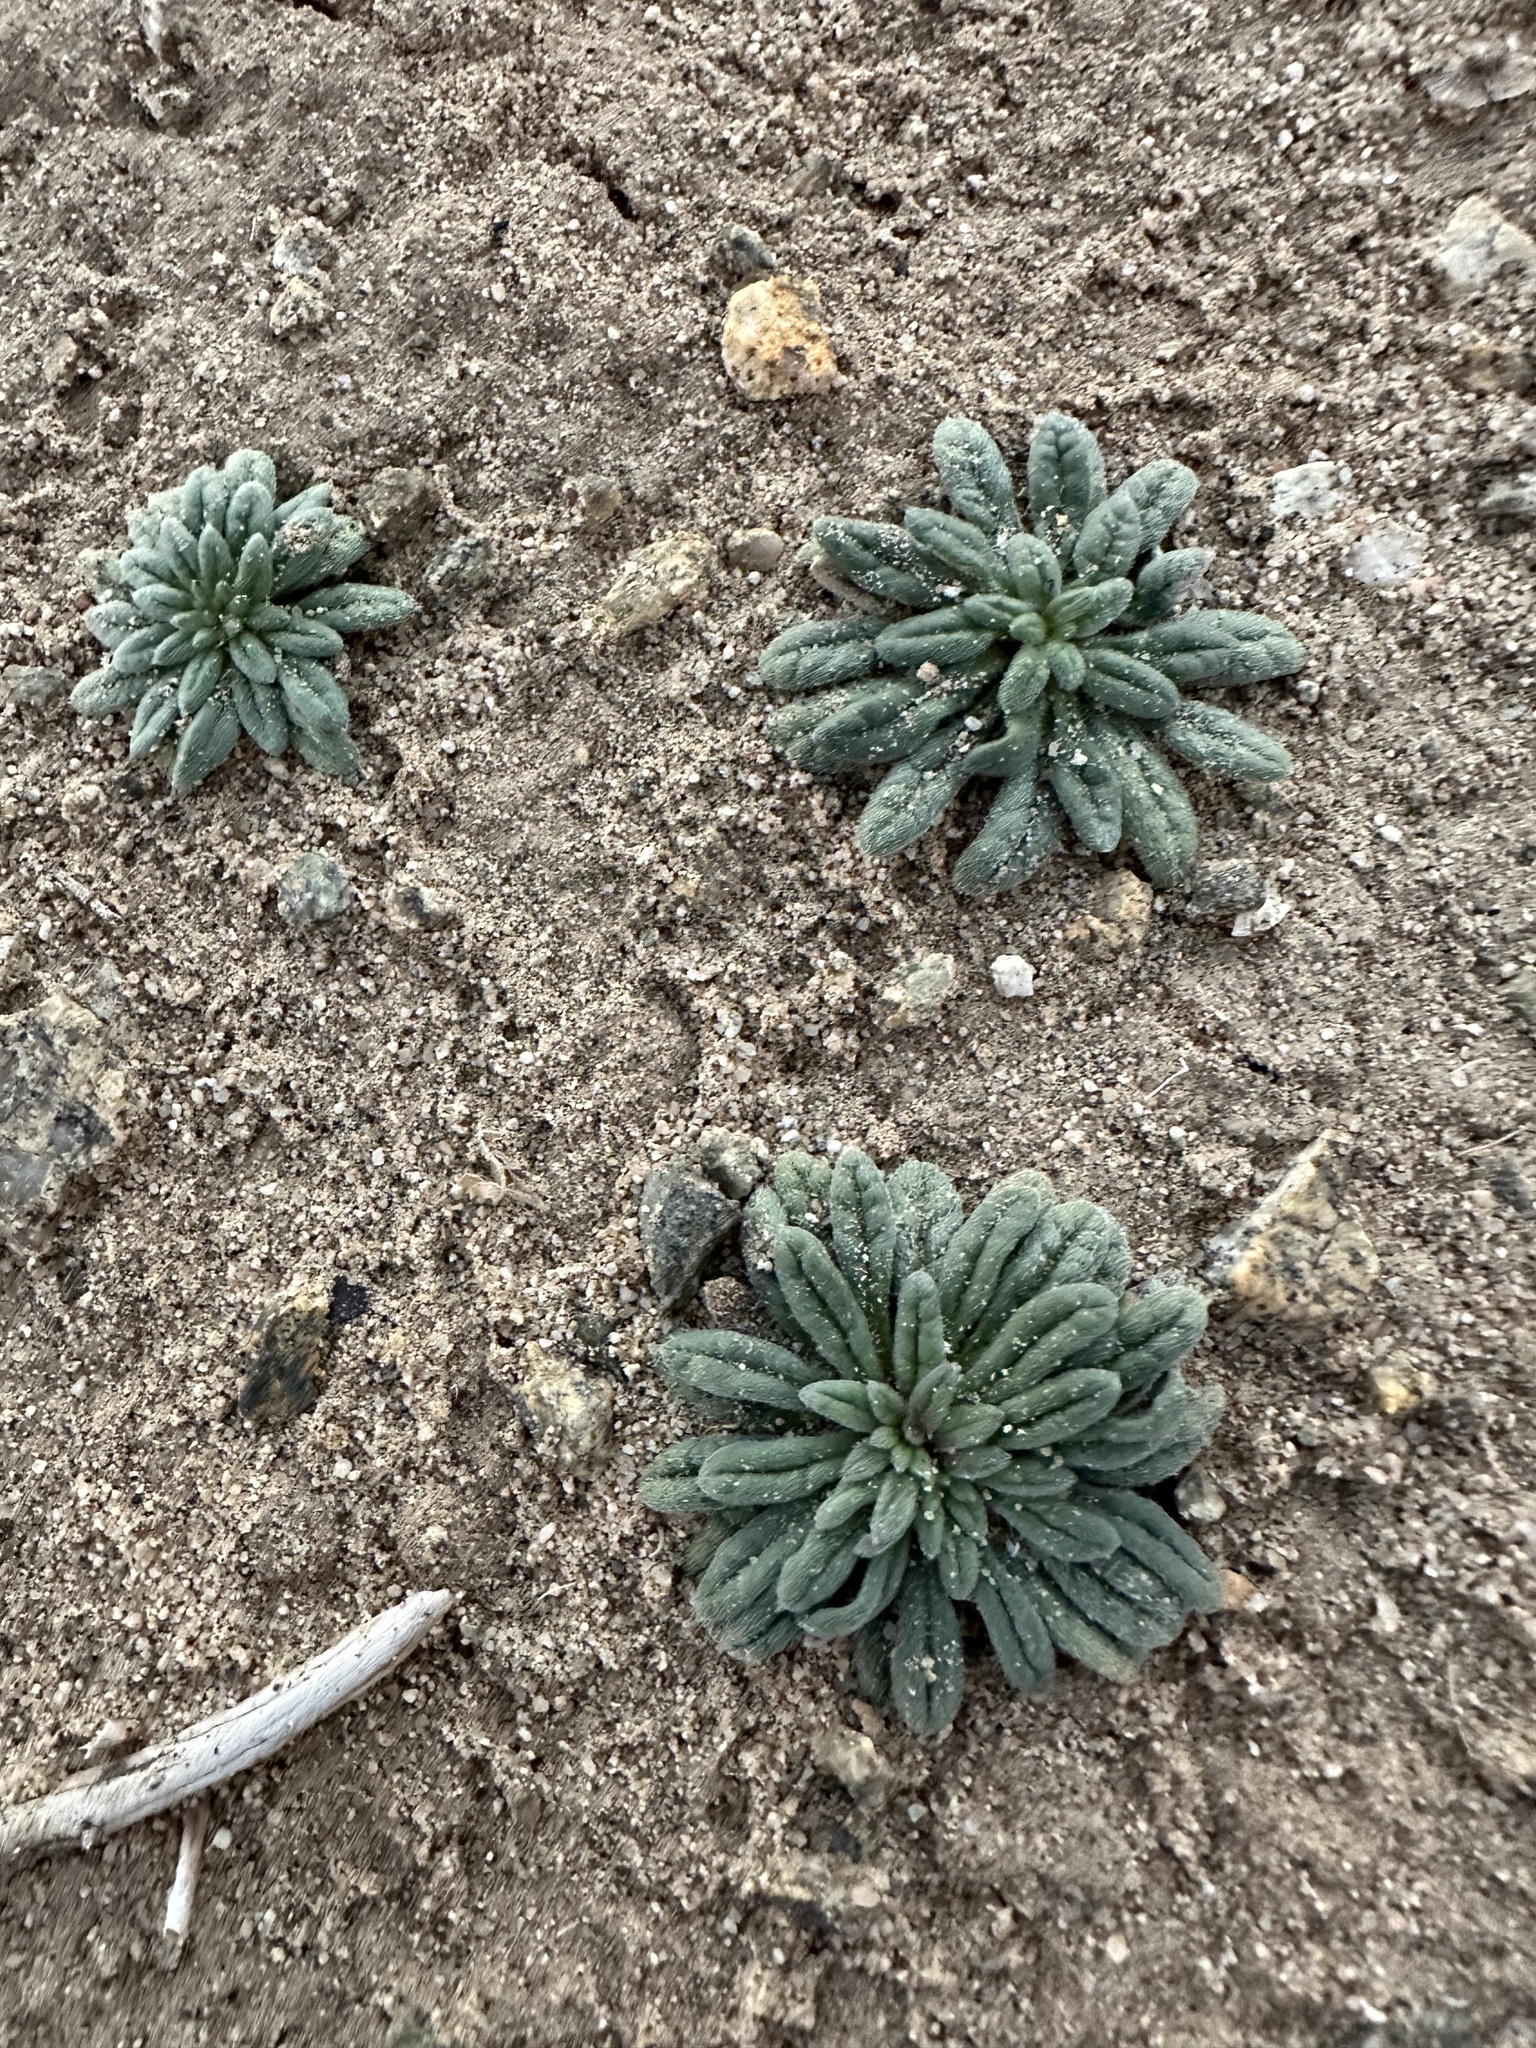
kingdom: Plantae
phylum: Tracheophyta
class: Magnoliopsida
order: Boraginales
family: Namaceae
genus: Nama
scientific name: Nama hispida
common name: Bristly nama
